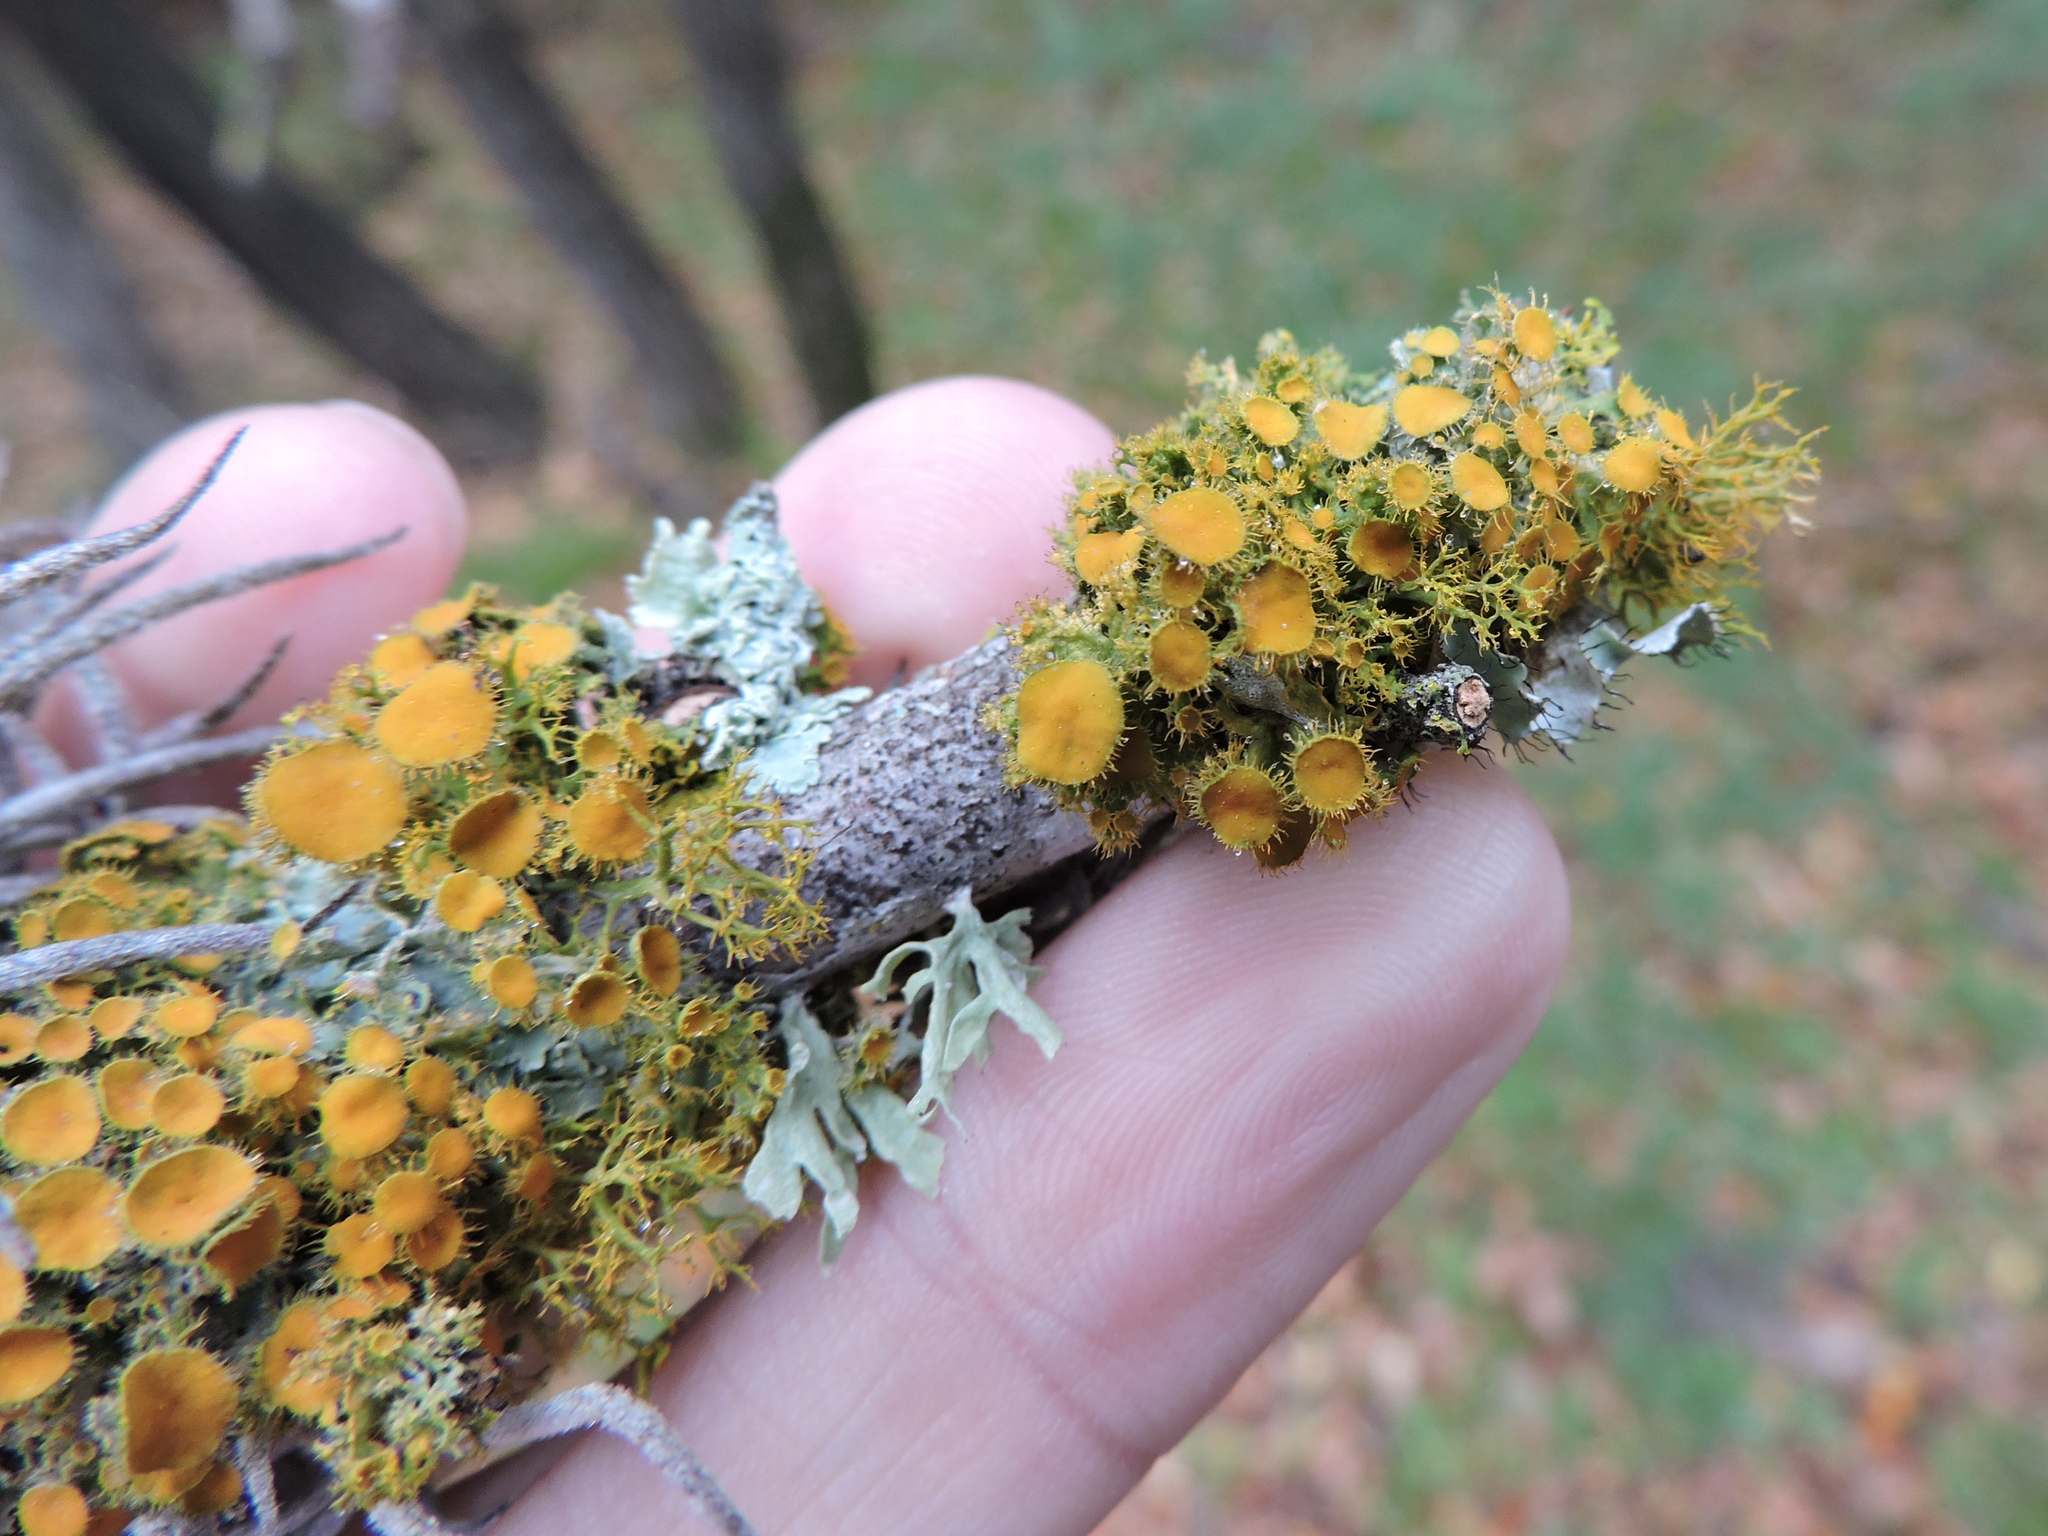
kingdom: Fungi
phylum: Ascomycota
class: Lecanoromycetes
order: Teloschistales
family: Teloschistaceae
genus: Niorma
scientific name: Niorma chrysophthalma
